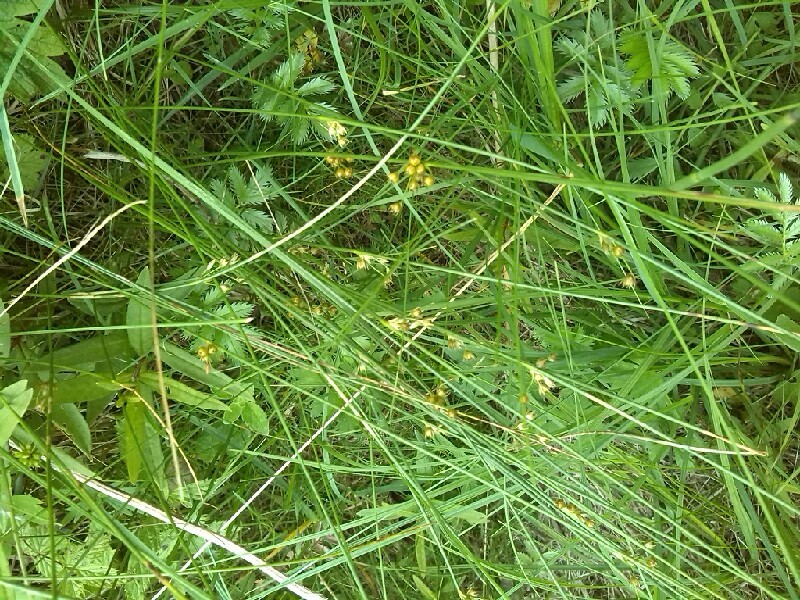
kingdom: Plantae
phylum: Tracheophyta
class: Liliopsida
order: Poales
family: Juncaceae
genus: Juncus
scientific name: Juncus filiformis
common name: Thread rush
